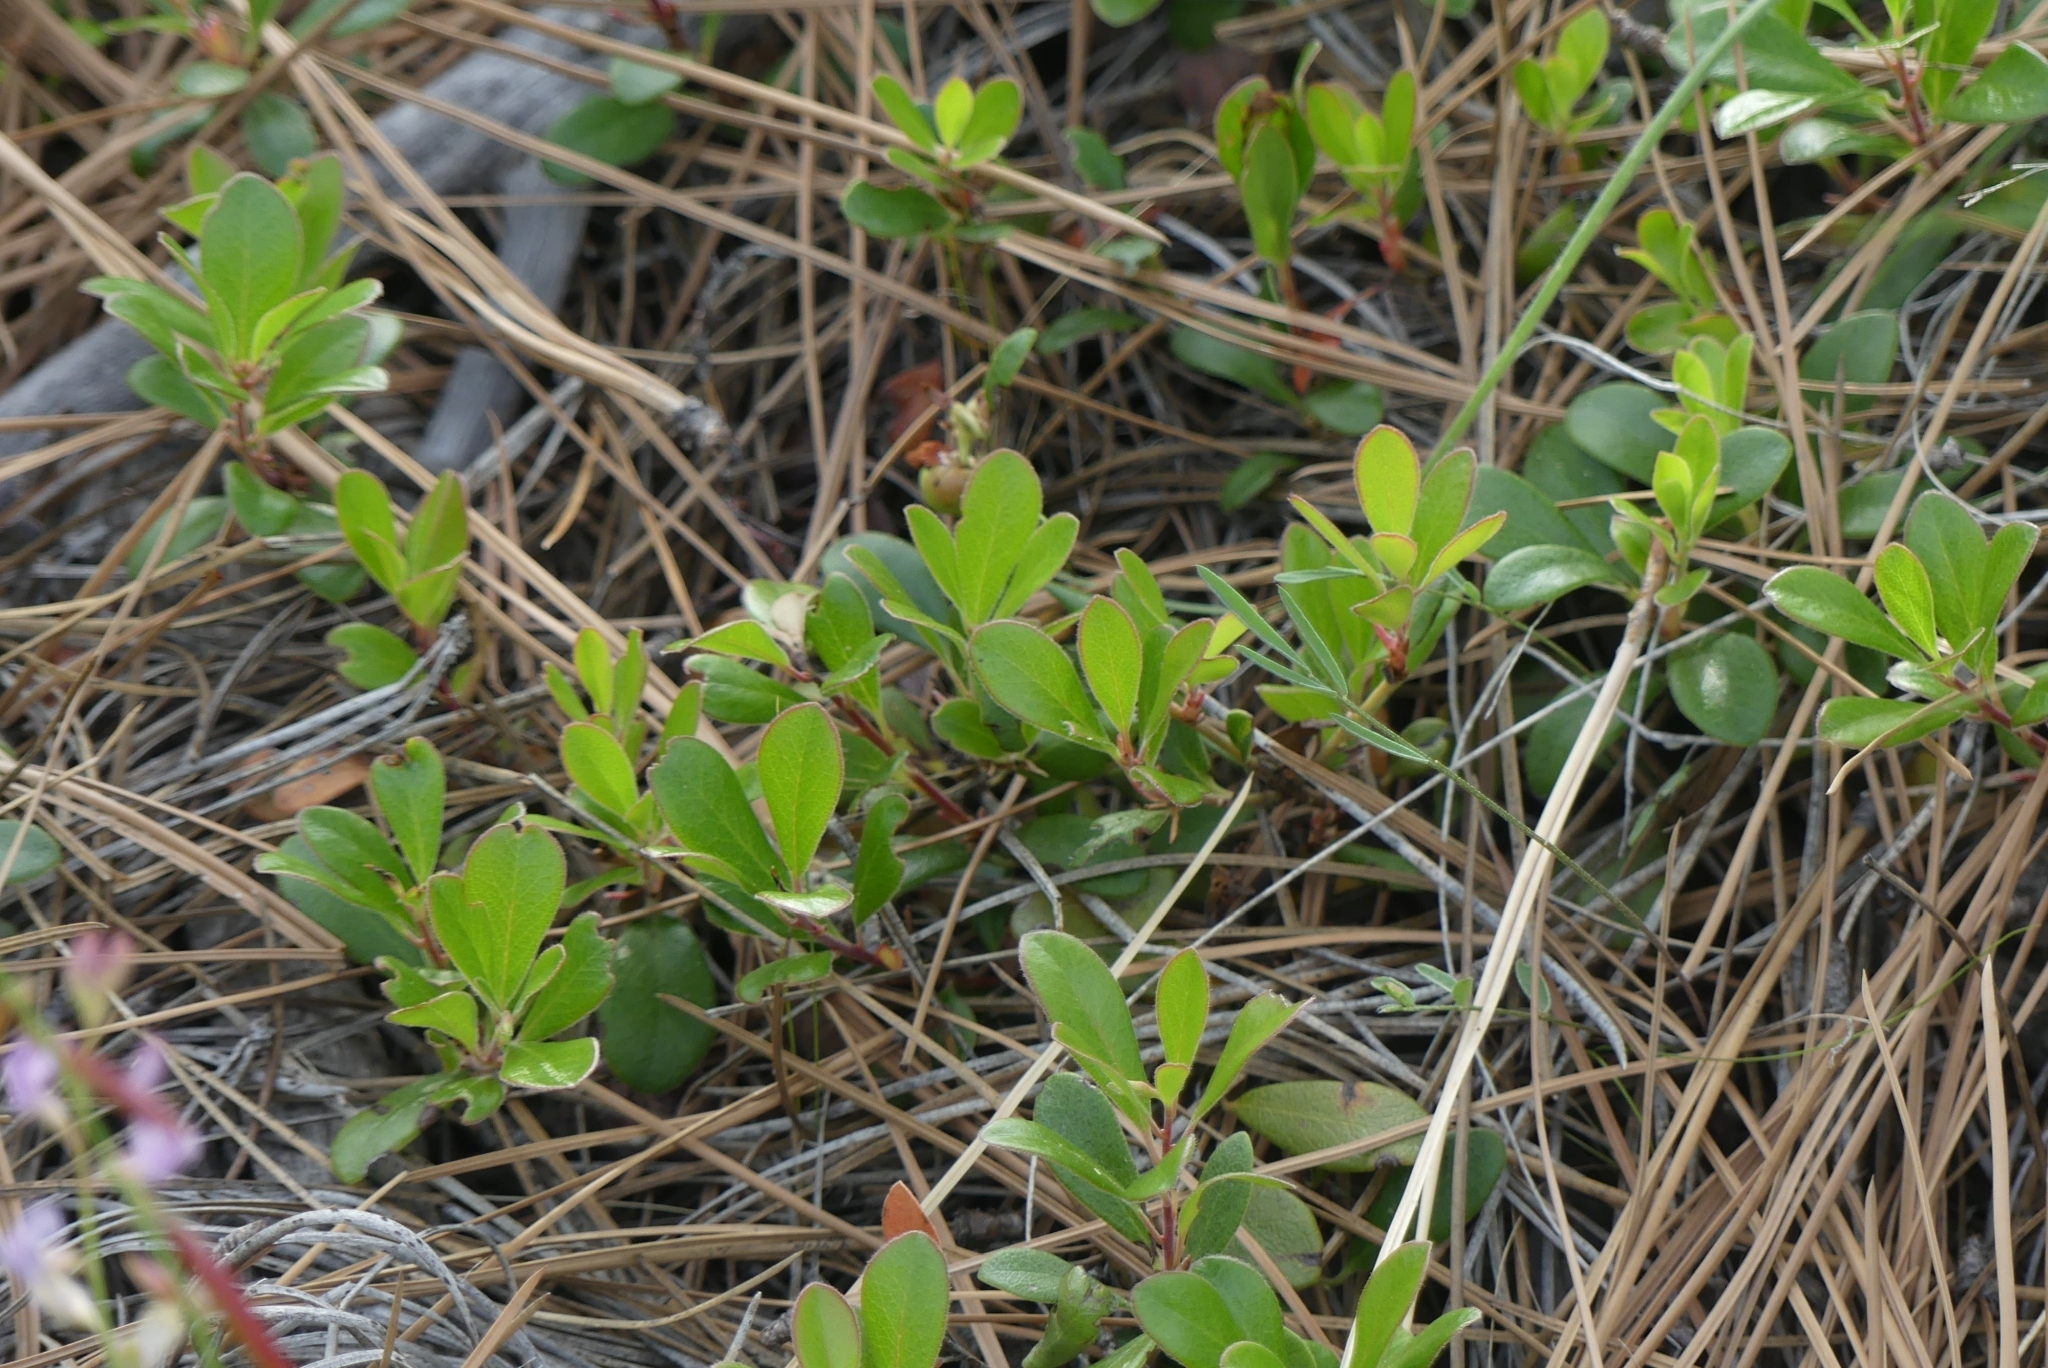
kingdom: Plantae
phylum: Tracheophyta
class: Magnoliopsida
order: Ericales
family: Ericaceae
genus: Arctostaphylos
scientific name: Arctostaphylos uva-ursi
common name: Bearberry
